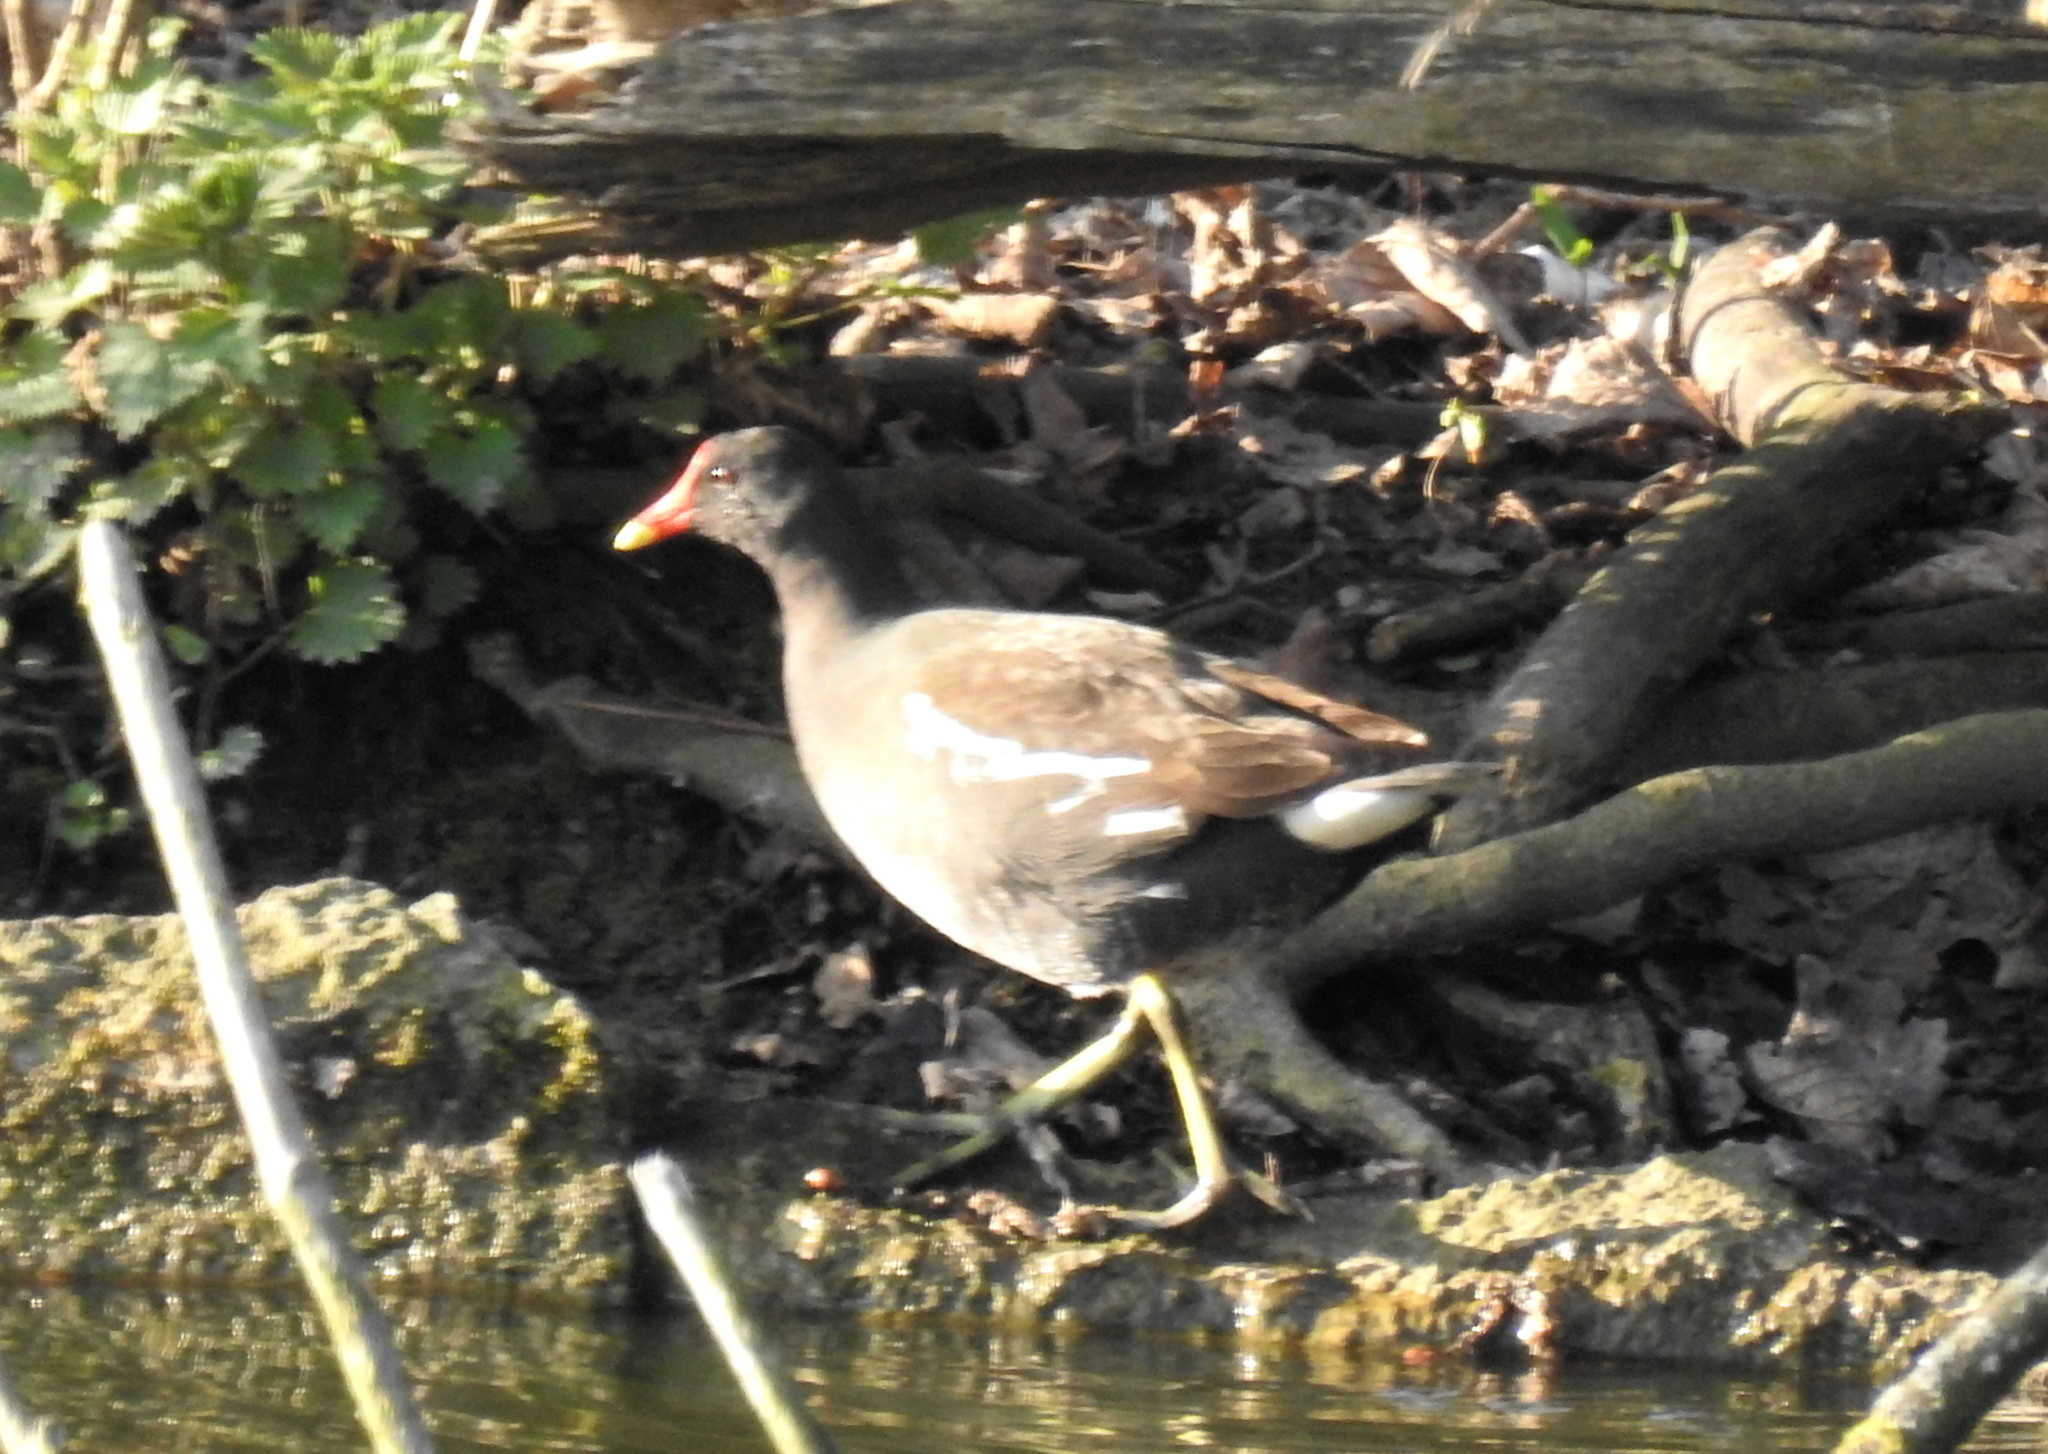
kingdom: Animalia
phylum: Chordata
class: Aves
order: Gruiformes
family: Rallidae
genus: Gallinula
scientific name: Gallinula chloropus
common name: Common moorhen
